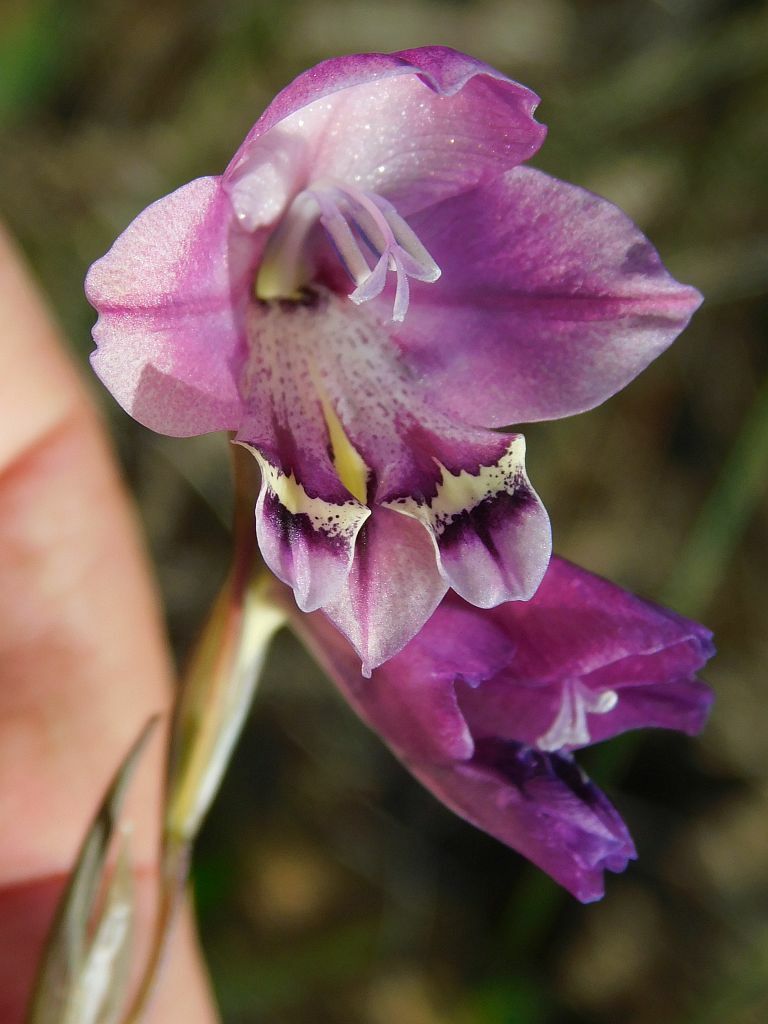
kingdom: Plantae
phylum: Tracheophyta
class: Liliopsida
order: Asparagales
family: Iridaceae
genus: Gladiolus
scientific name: Gladiolus rogersii
